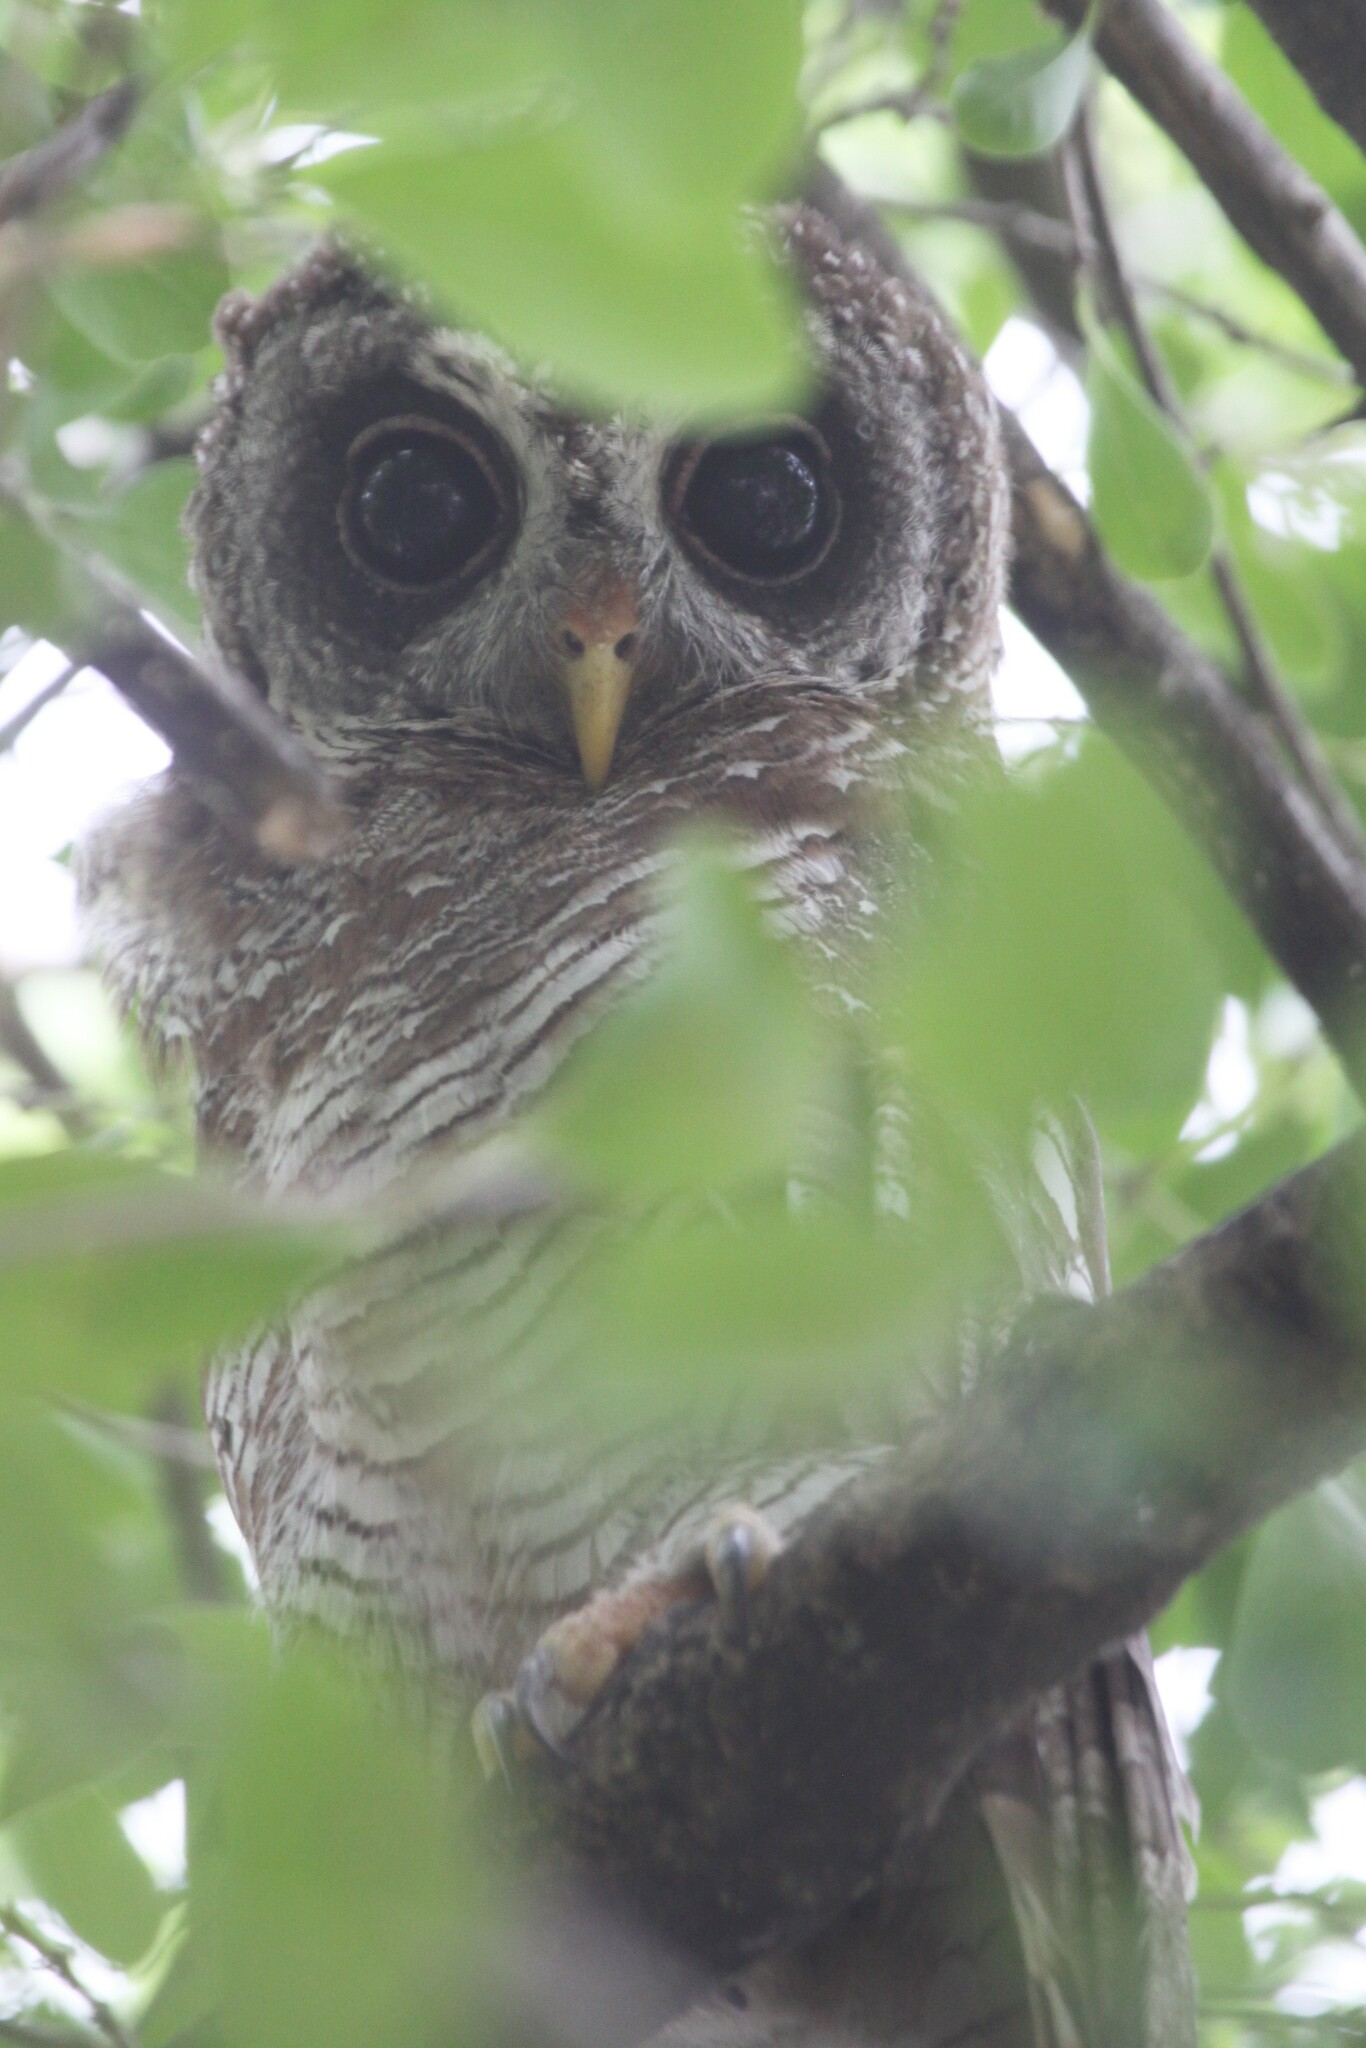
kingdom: Animalia
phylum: Chordata
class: Aves
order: Strigiformes
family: Strigidae
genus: Strix
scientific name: Strix woodfordii
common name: African wood owl
